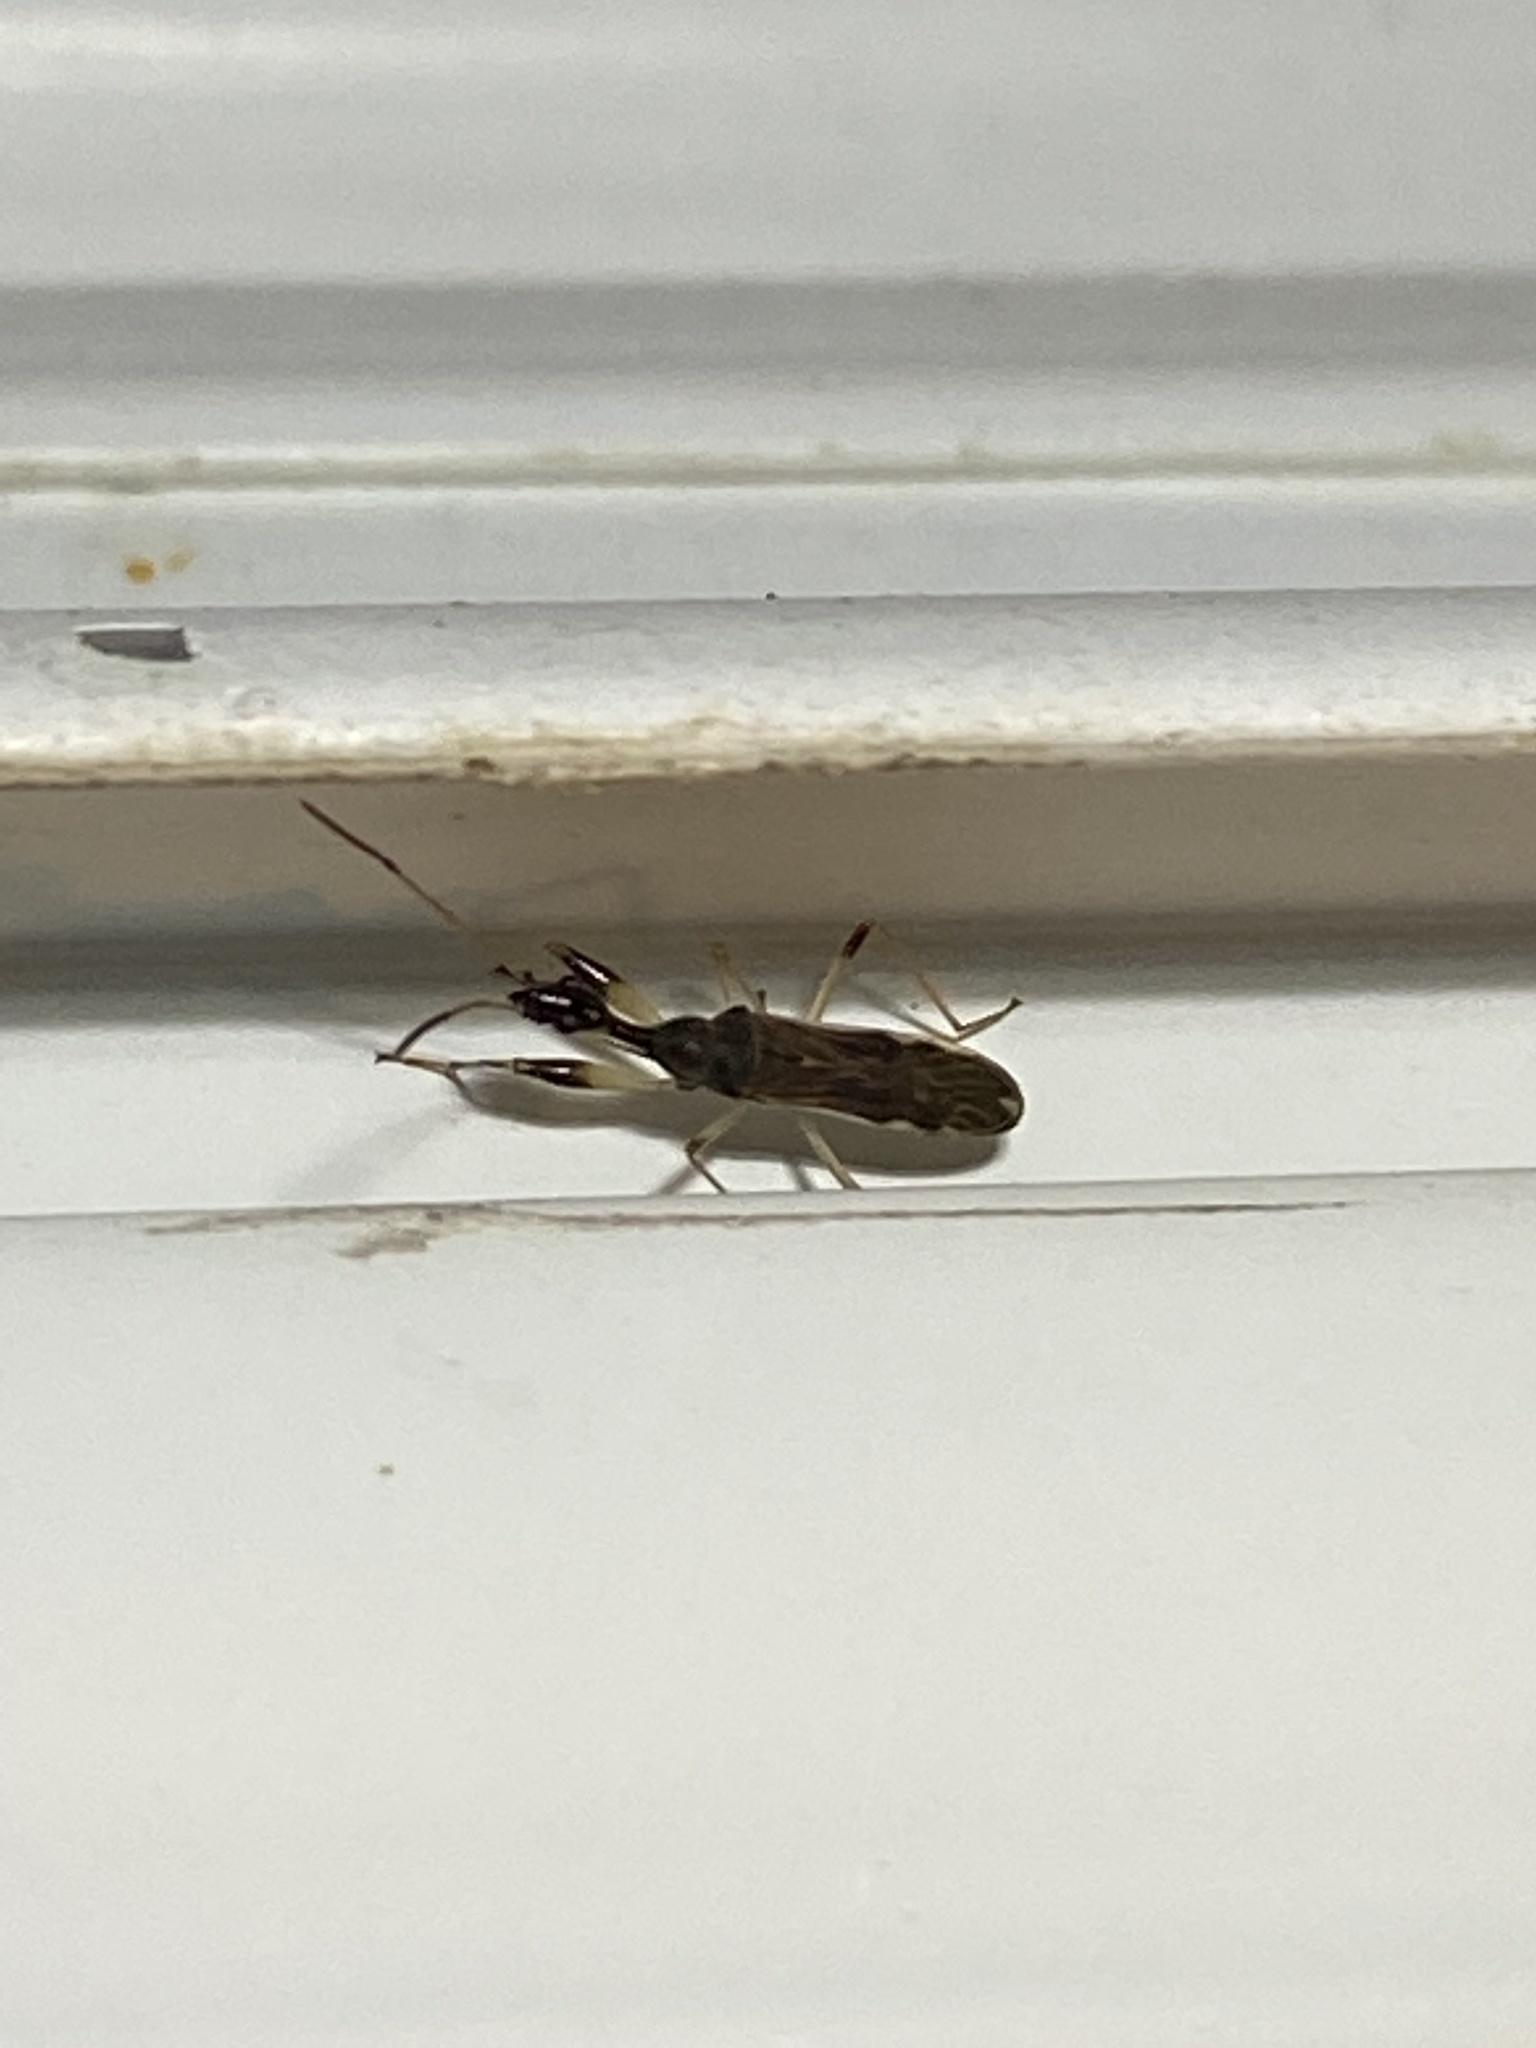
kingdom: Animalia
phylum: Arthropoda
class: Insecta
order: Hemiptera
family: Rhyparochromidae
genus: Myodocha
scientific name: Myodocha serripes
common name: Long-necked seed bug
